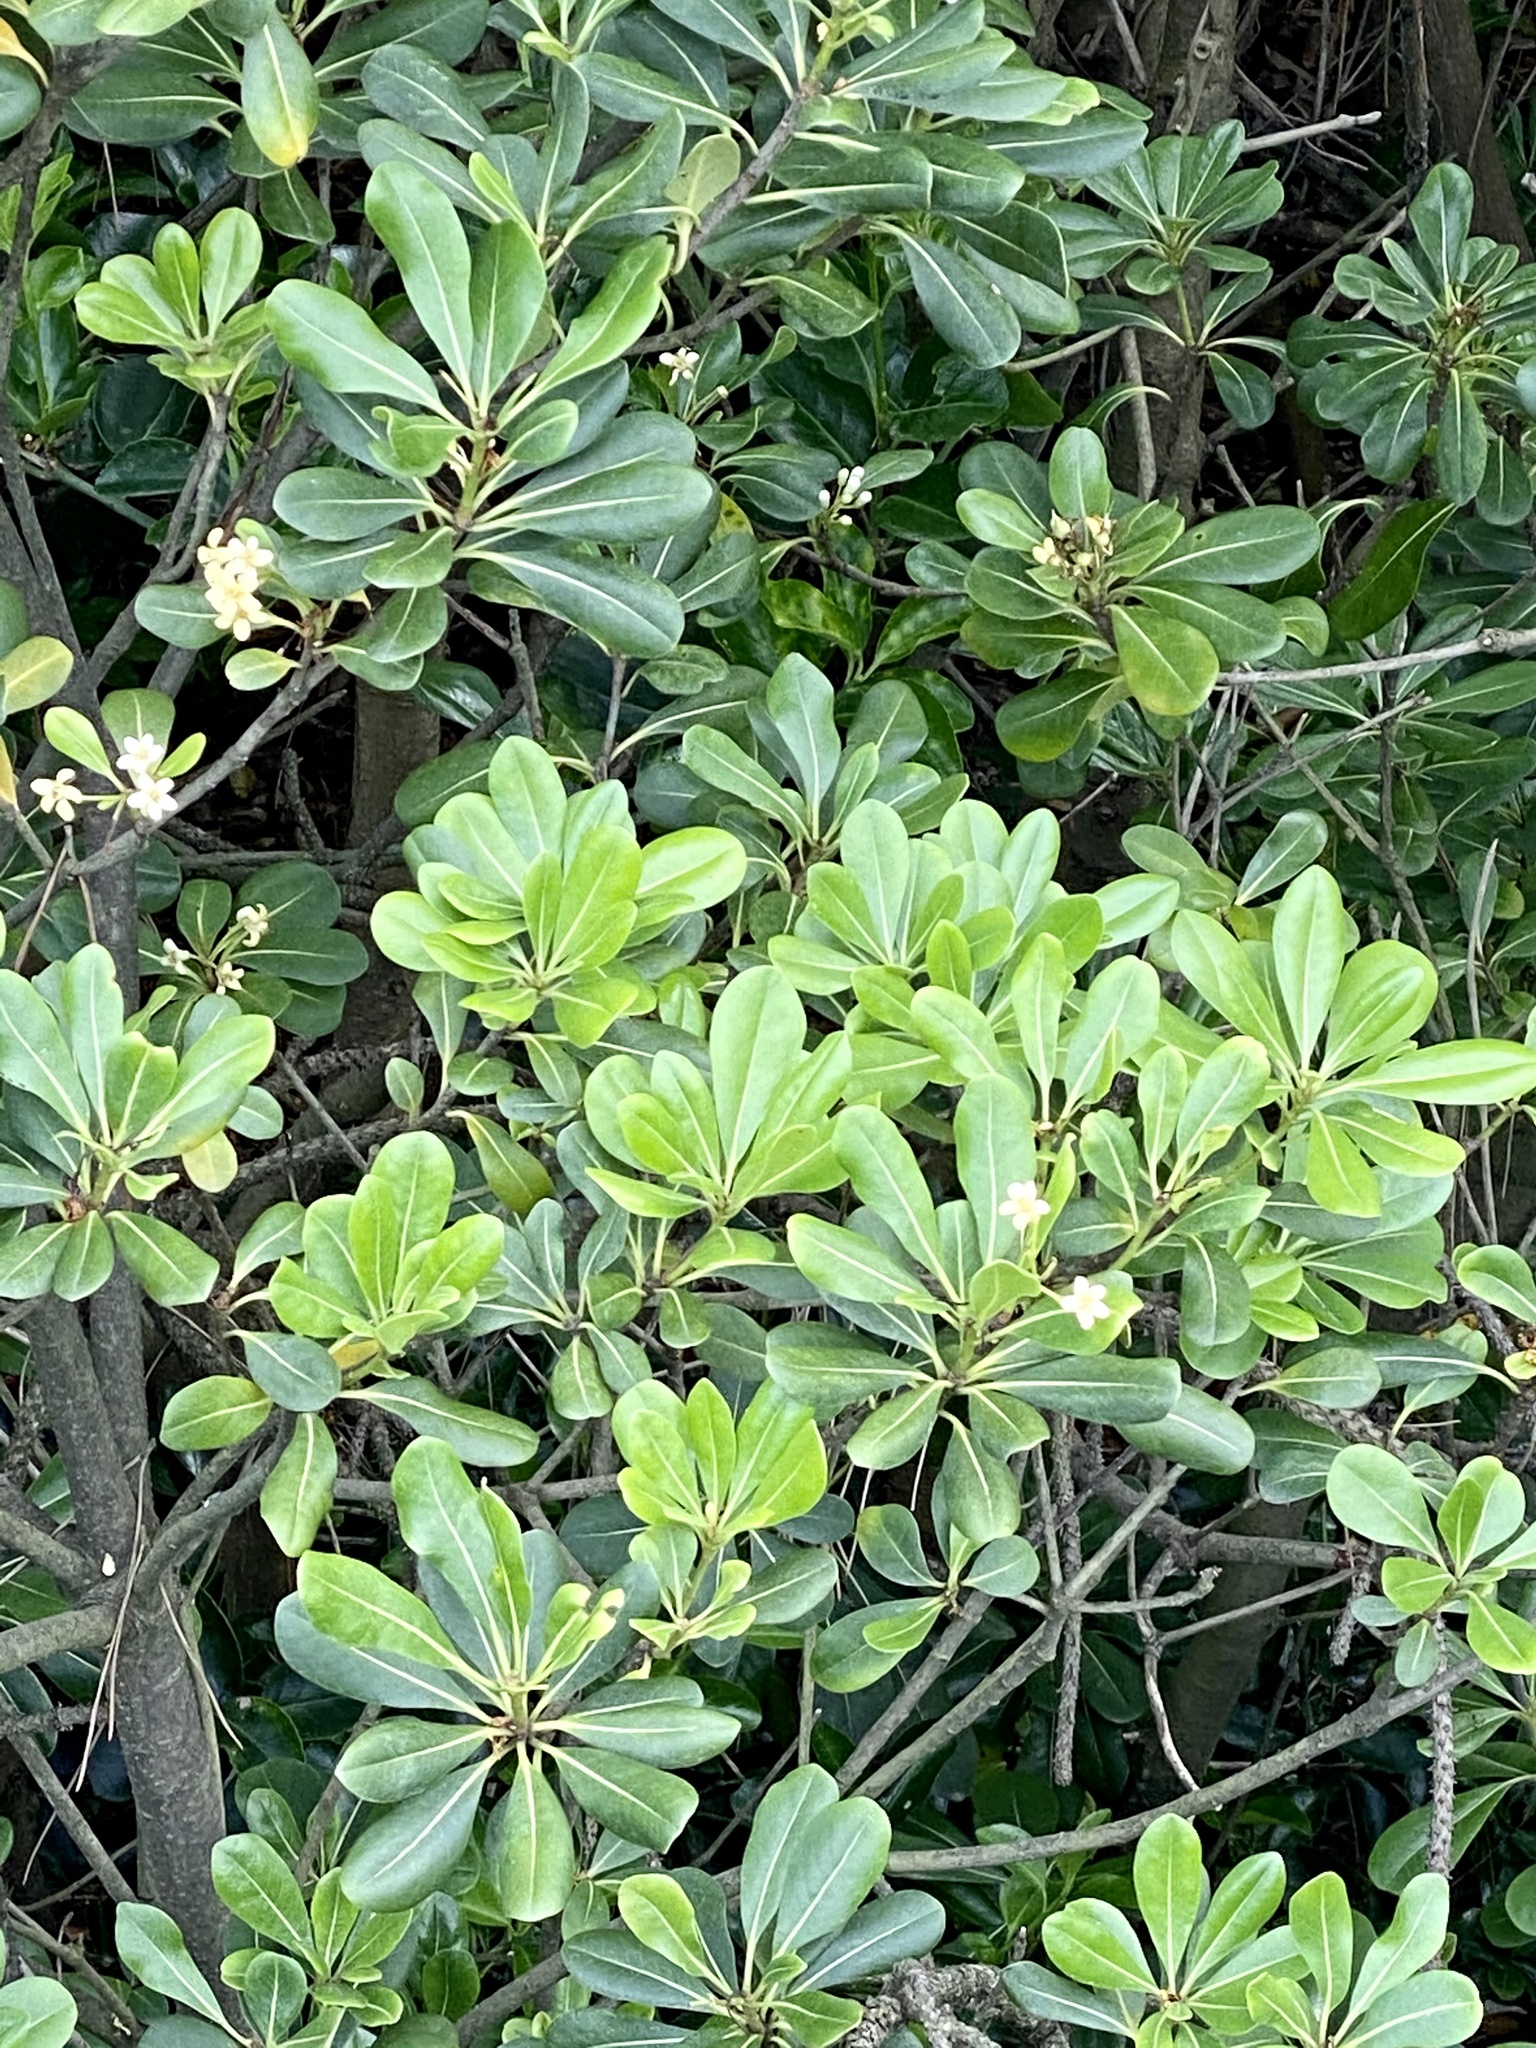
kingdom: Plantae
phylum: Tracheophyta
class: Magnoliopsida
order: Apiales
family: Pittosporaceae
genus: Pittosporum
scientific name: Pittosporum tobira
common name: Japanese cheesewood
